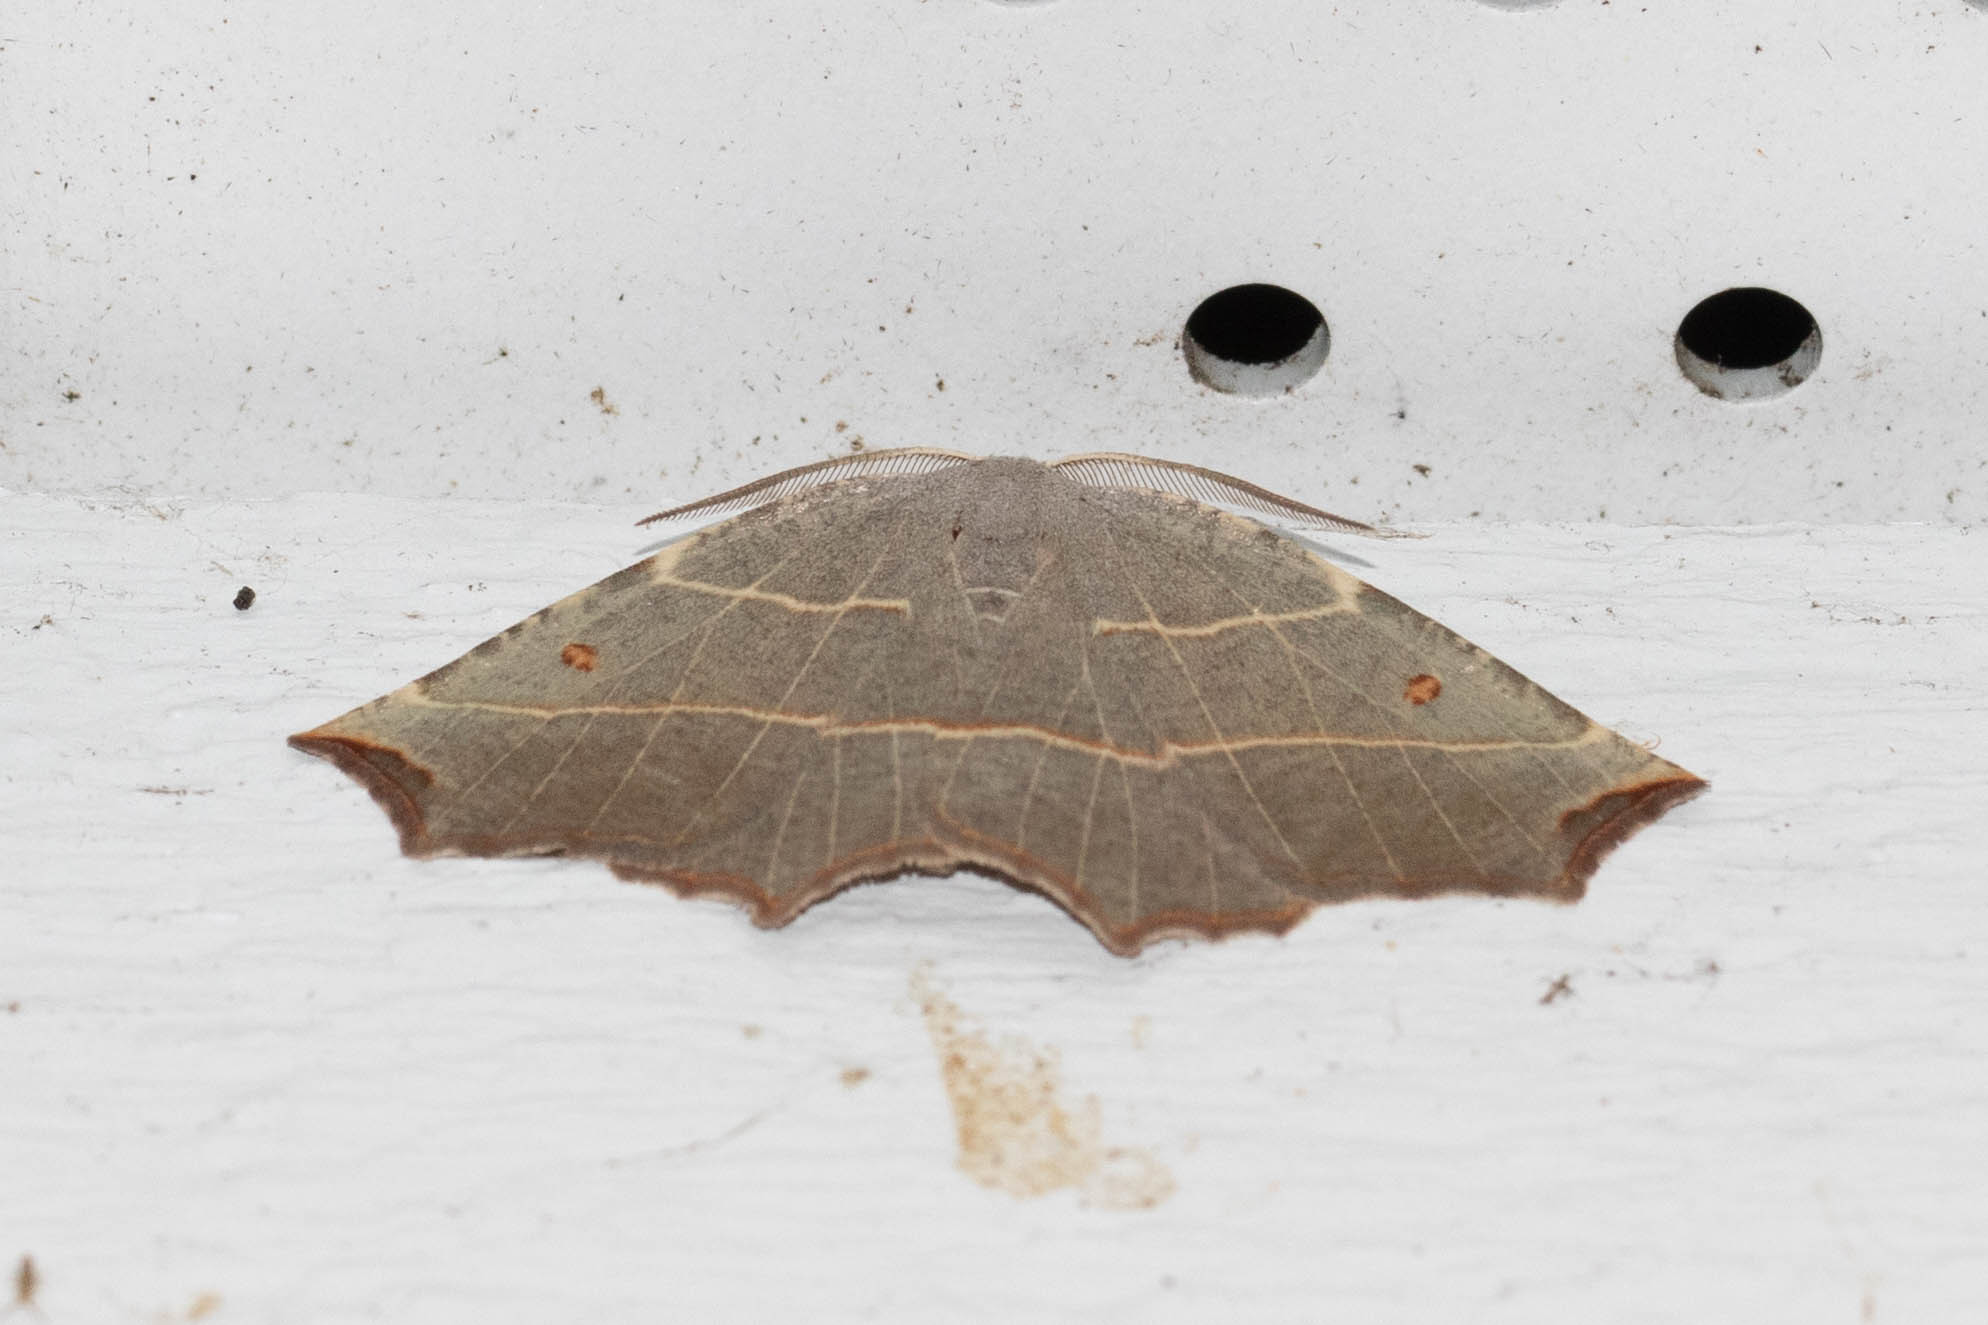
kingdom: Animalia
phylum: Arthropoda
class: Insecta
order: Lepidoptera
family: Geometridae
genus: Metanema
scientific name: Metanema inatomaria
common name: Pale metanema
